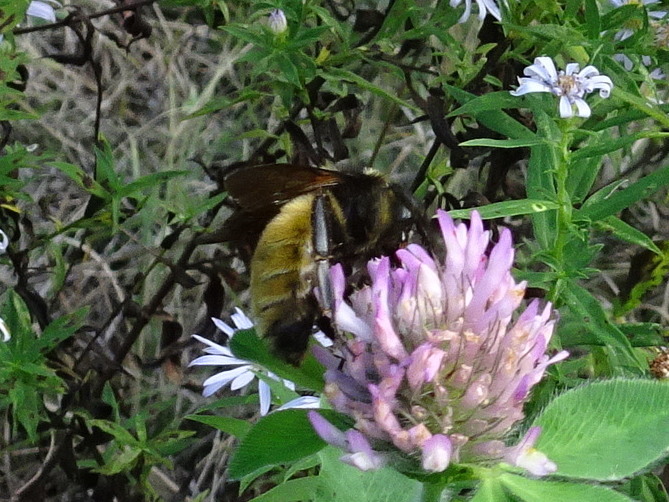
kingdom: Animalia
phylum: Arthropoda
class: Insecta
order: Hymenoptera
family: Apidae
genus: Bombus
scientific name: Bombus pensylvanicus
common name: Bumble bee
